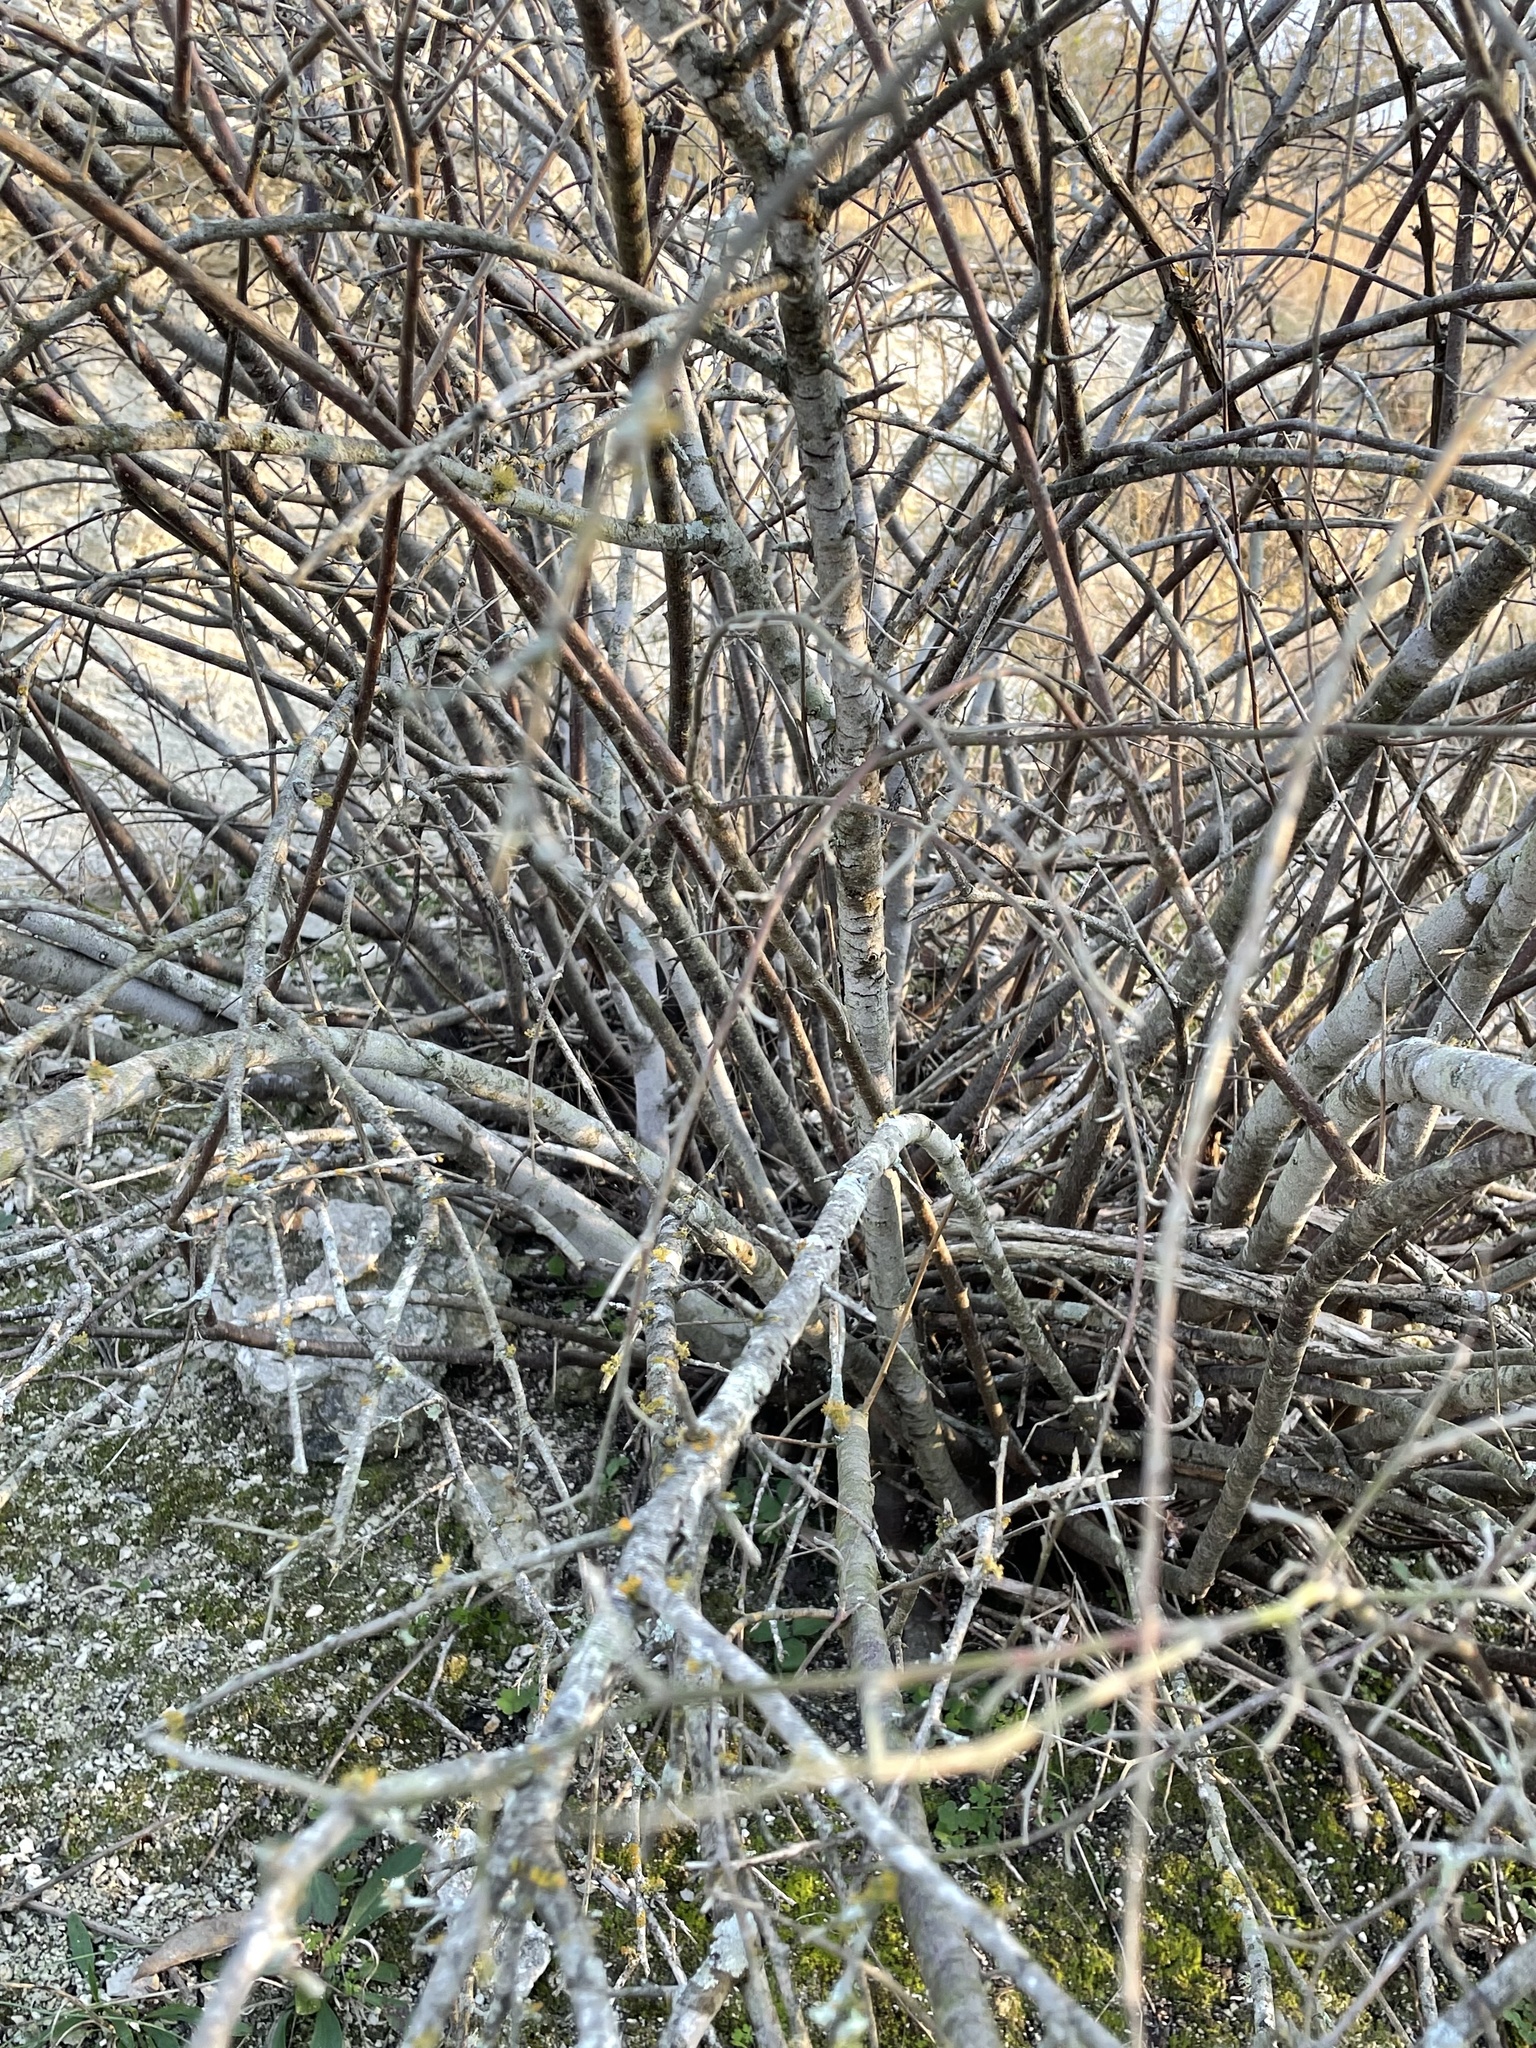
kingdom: Plantae
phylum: Tracheophyta
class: Magnoliopsida
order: Sapindales
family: Anacardiaceae
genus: Rhus
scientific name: Rhus aromatica
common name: Aromatic sumac
